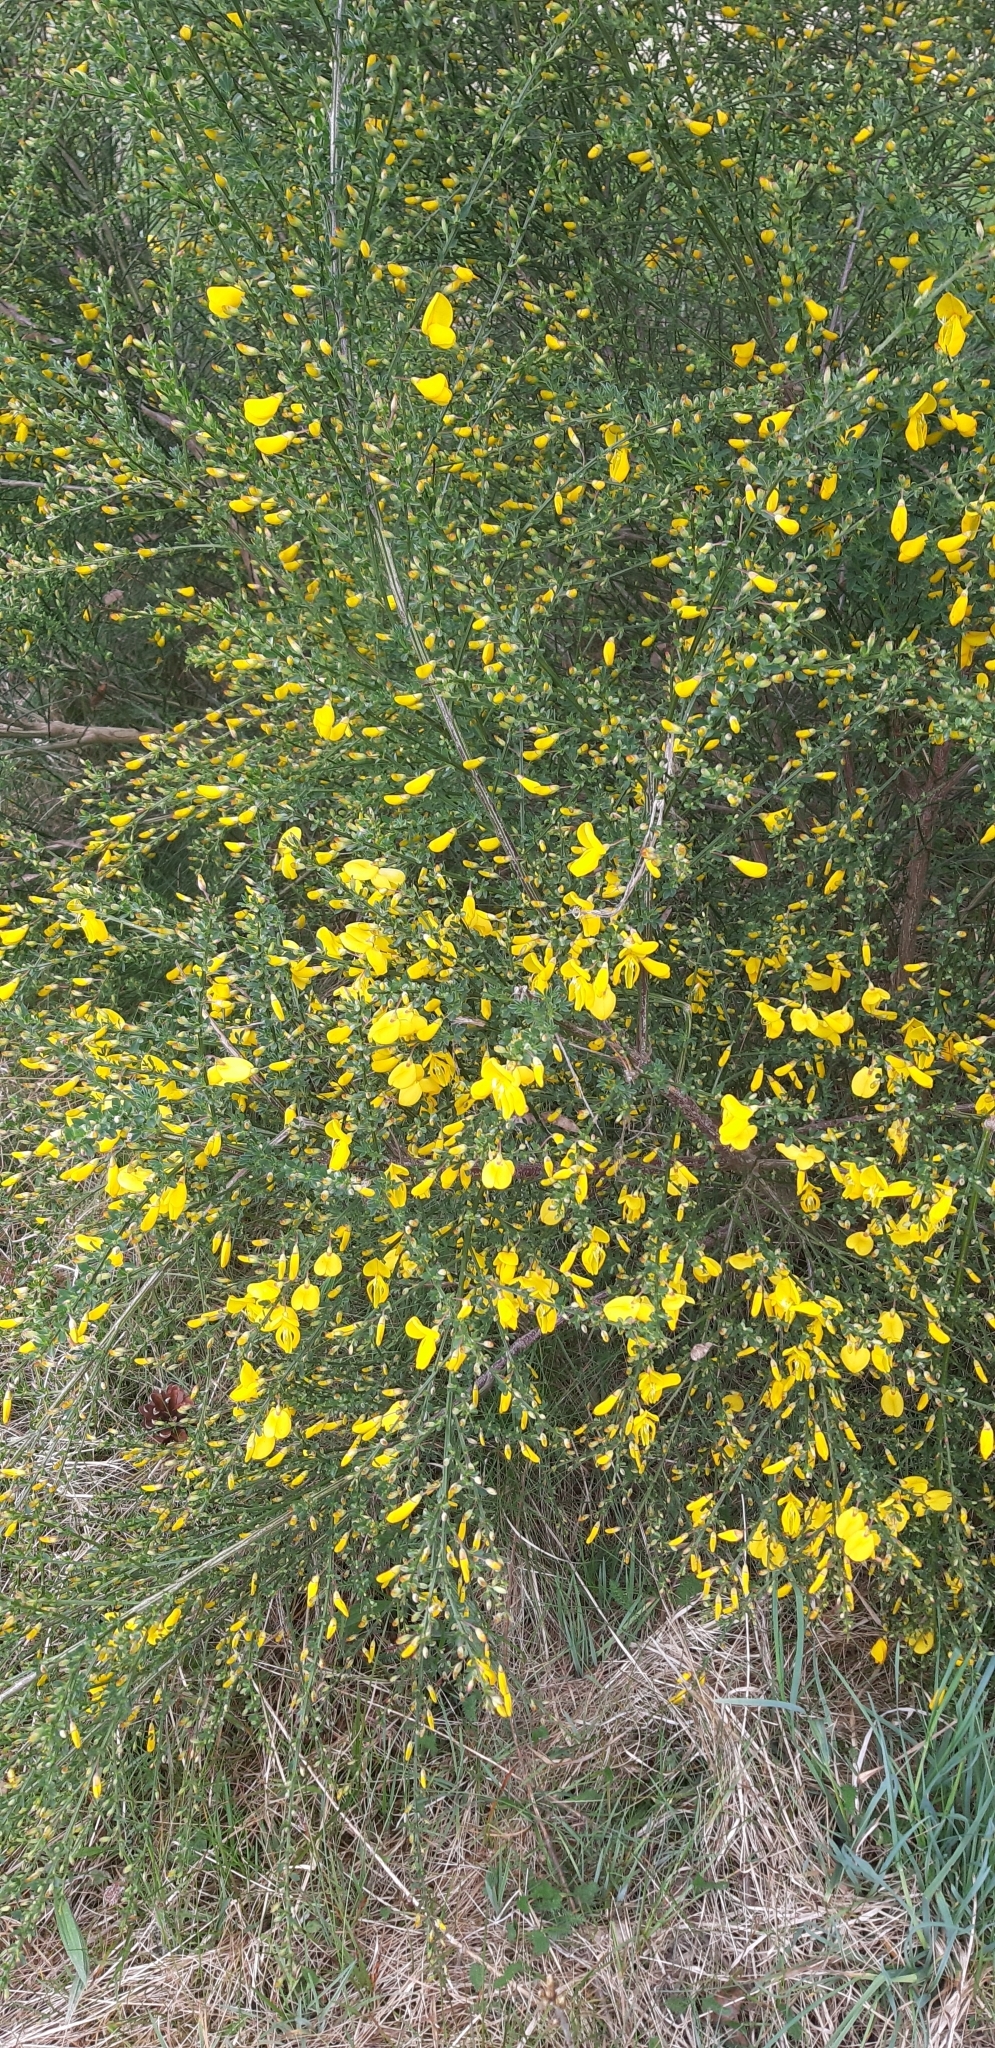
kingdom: Plantae
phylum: Tracheophyta
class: Magnoliopsida
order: Fabales
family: Fabaceae
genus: Cytisus
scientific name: Cytisus scoparius
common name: Scotch broom
